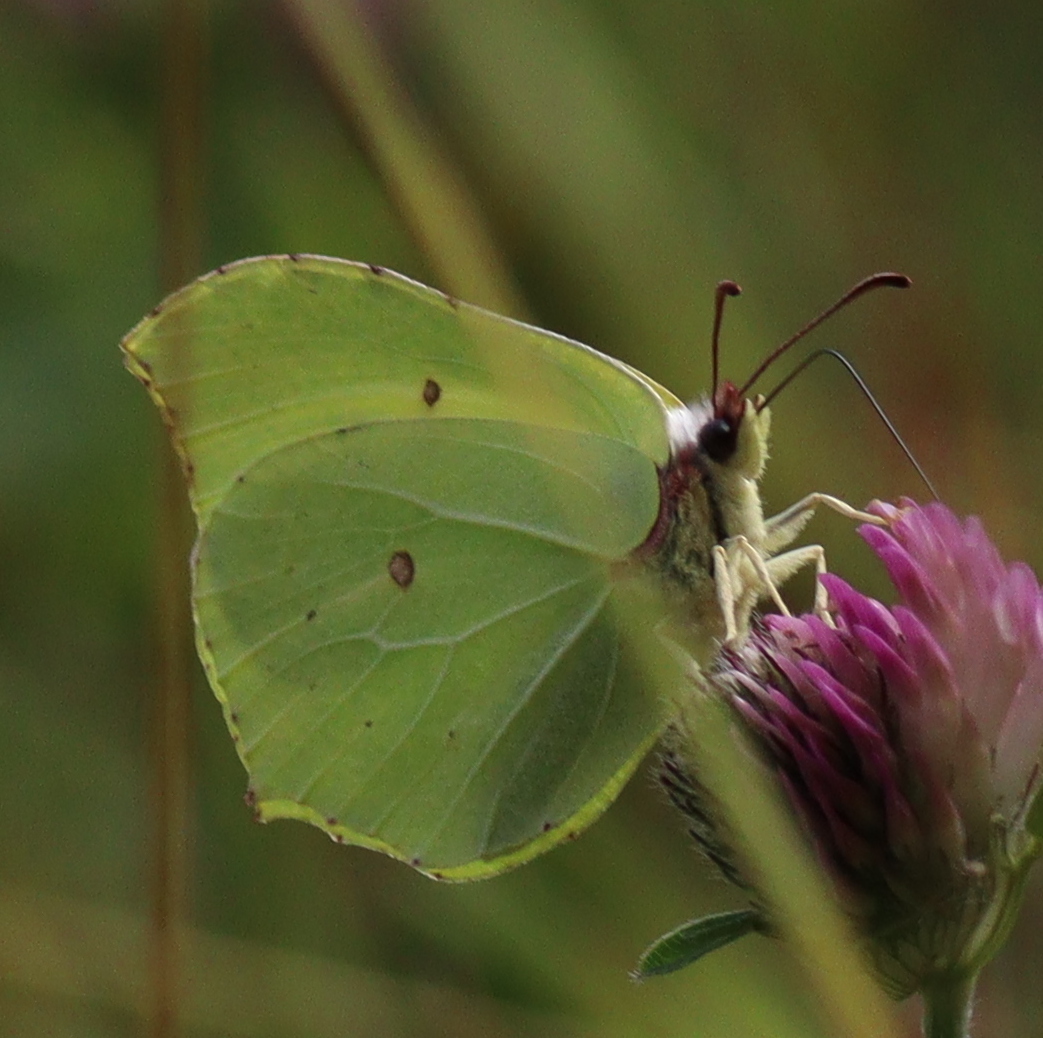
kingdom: Animalia
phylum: Arthropoda
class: Insecta
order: Lepidoptera
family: Pieridae
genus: Gonepteryx
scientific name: Gonepteryx rhamni
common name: Brimstone
